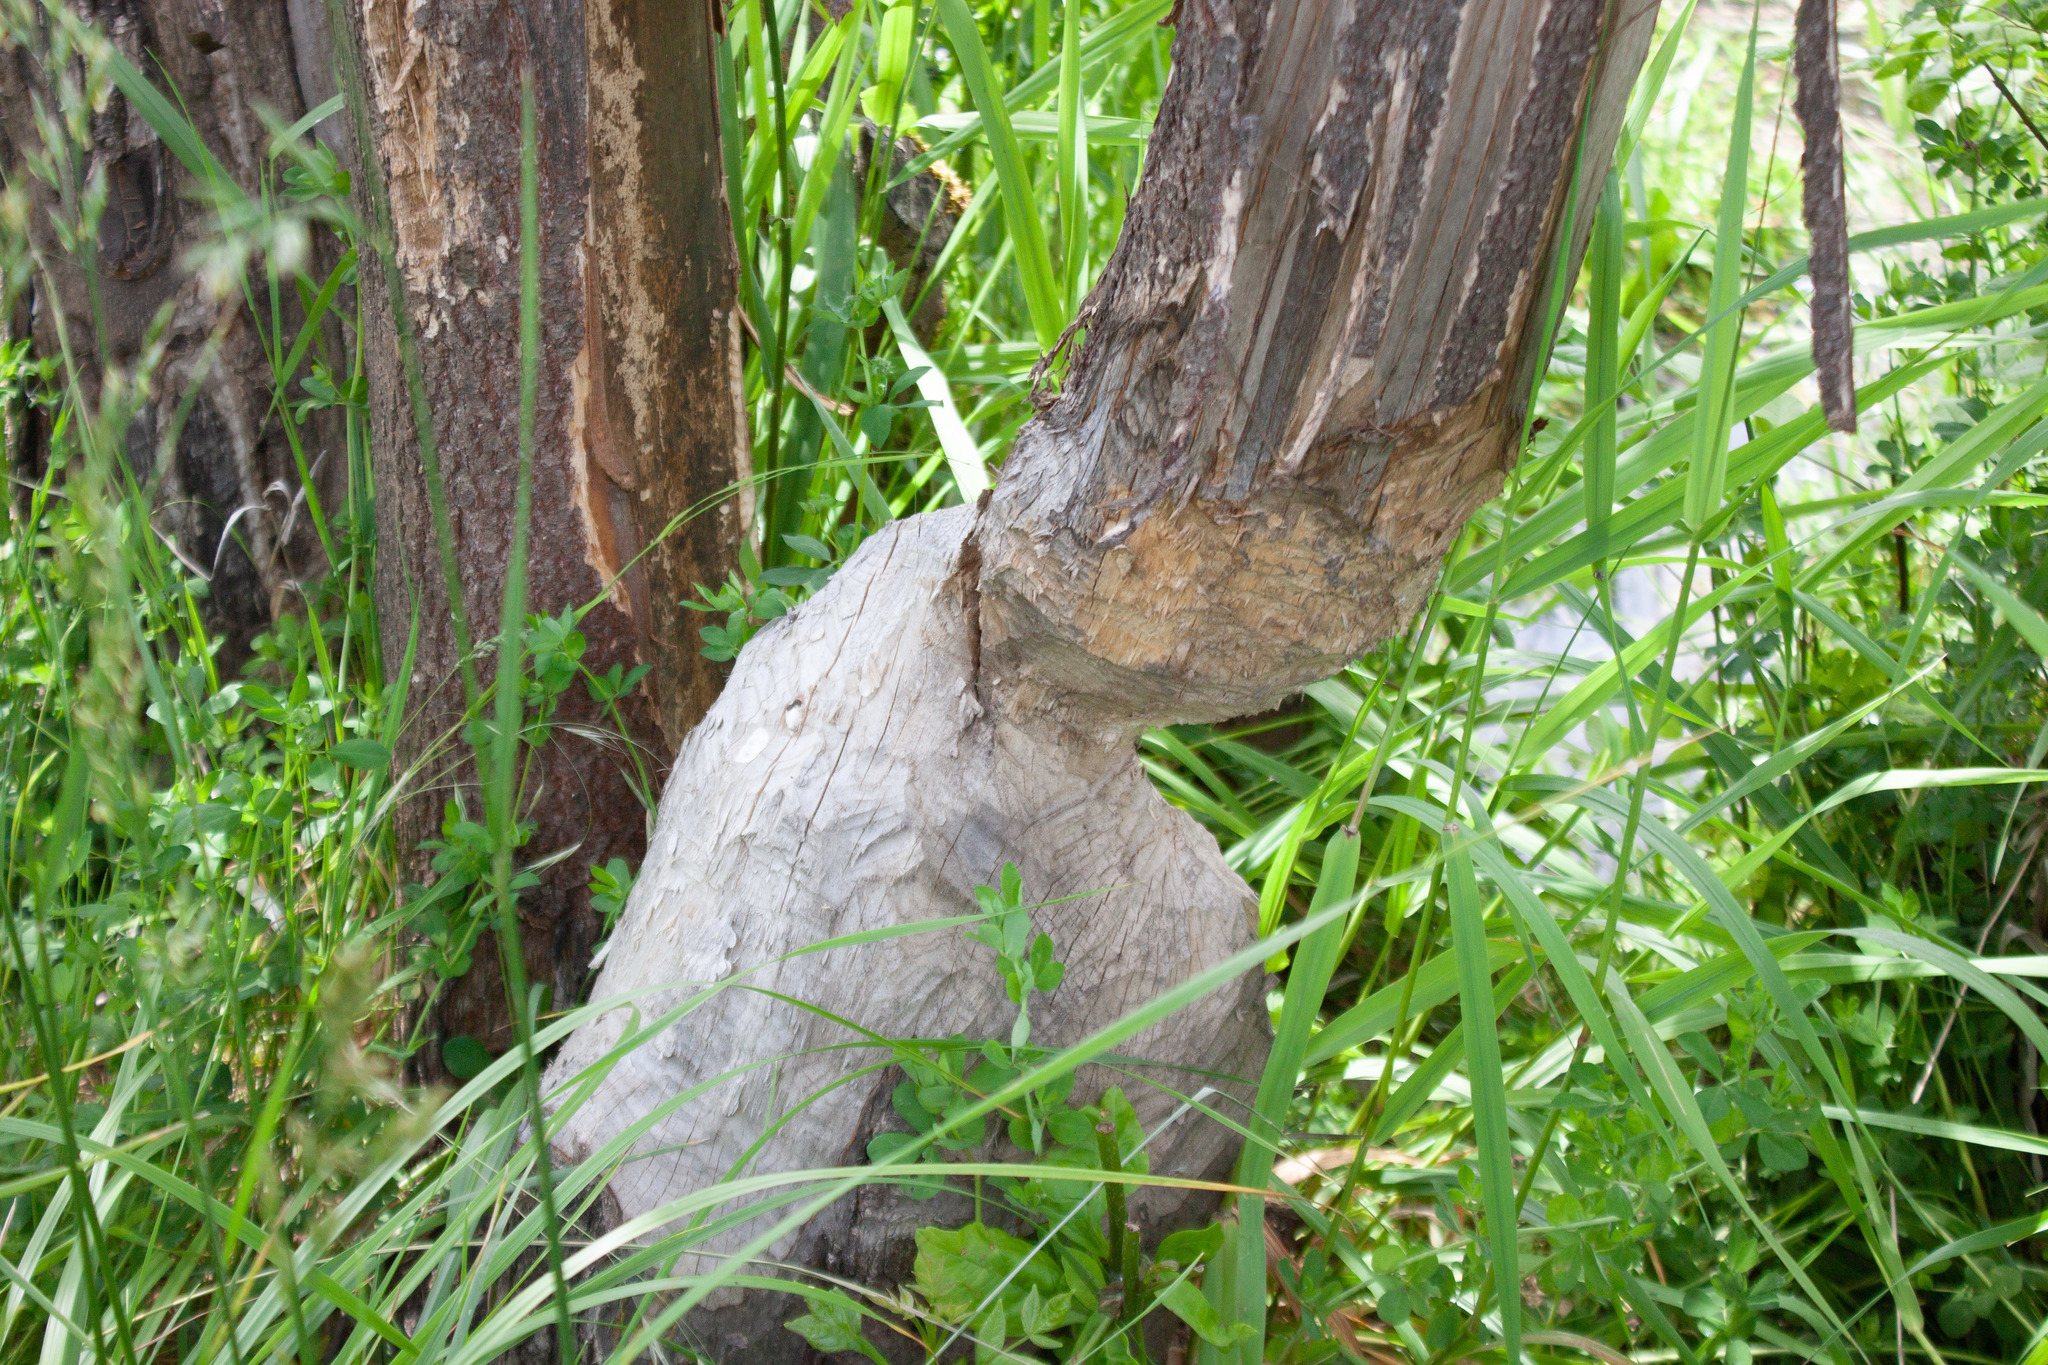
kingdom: Animalia
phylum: Chordata
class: Mammalia
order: Rodentia
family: Castoridae
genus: Castor
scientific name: Castor canadensis
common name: American beaver
